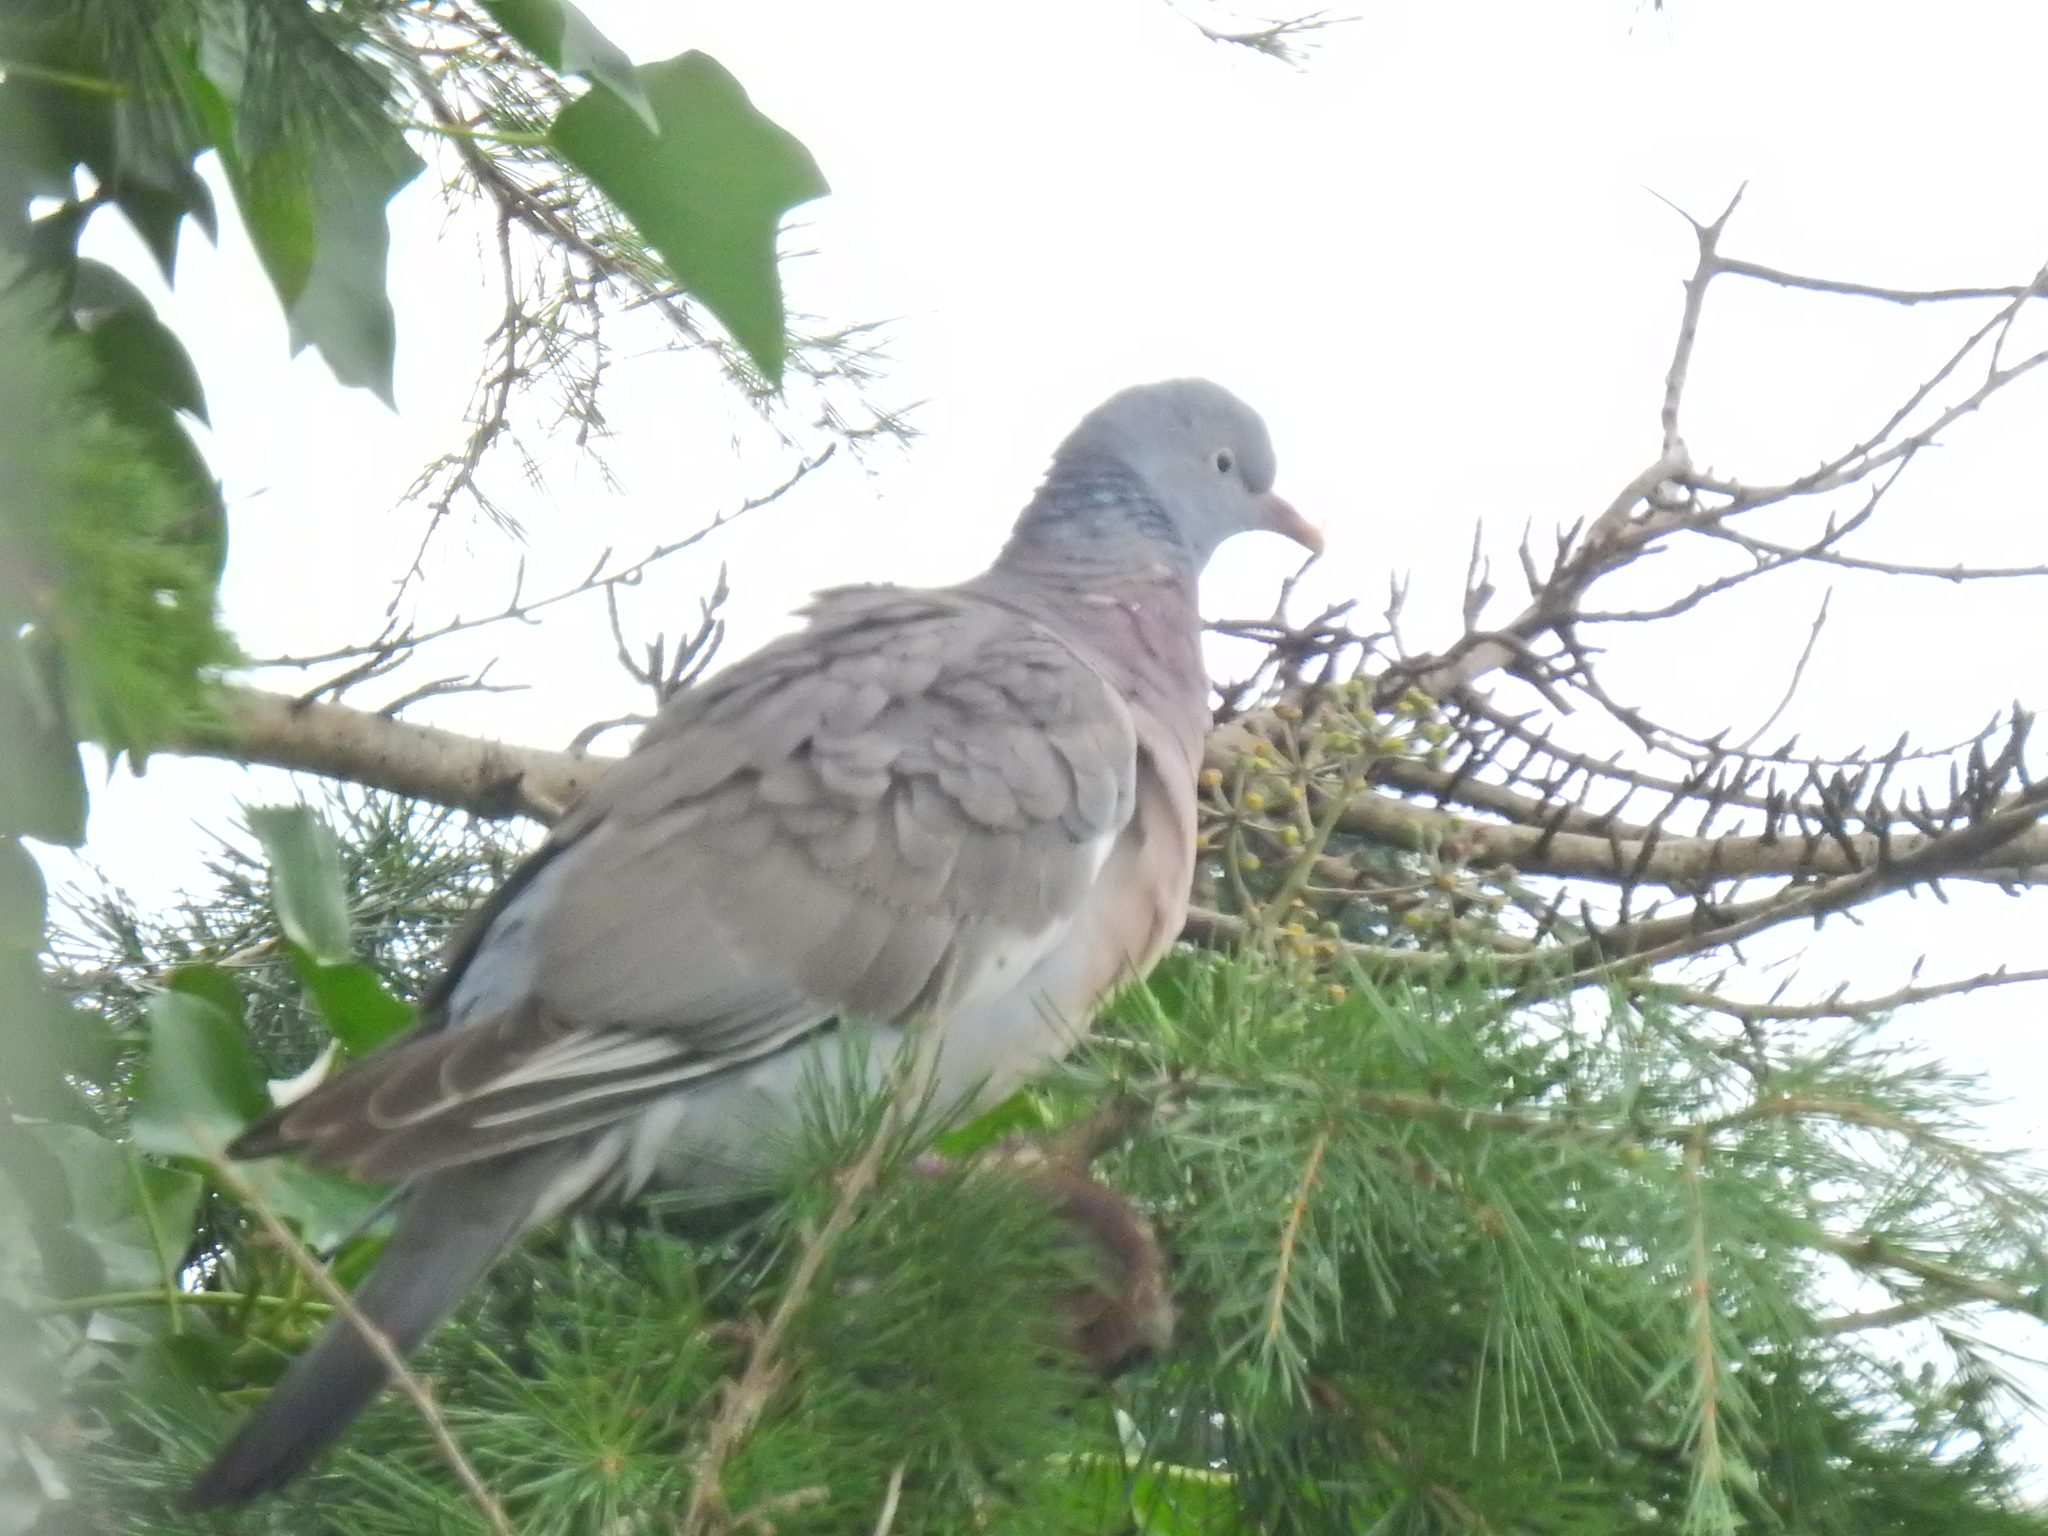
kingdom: Animalia
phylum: Chordata
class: Aves
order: Columbiformes
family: Columbidae
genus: Columba
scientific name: Columba palumbus
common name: Common wood pigeon
